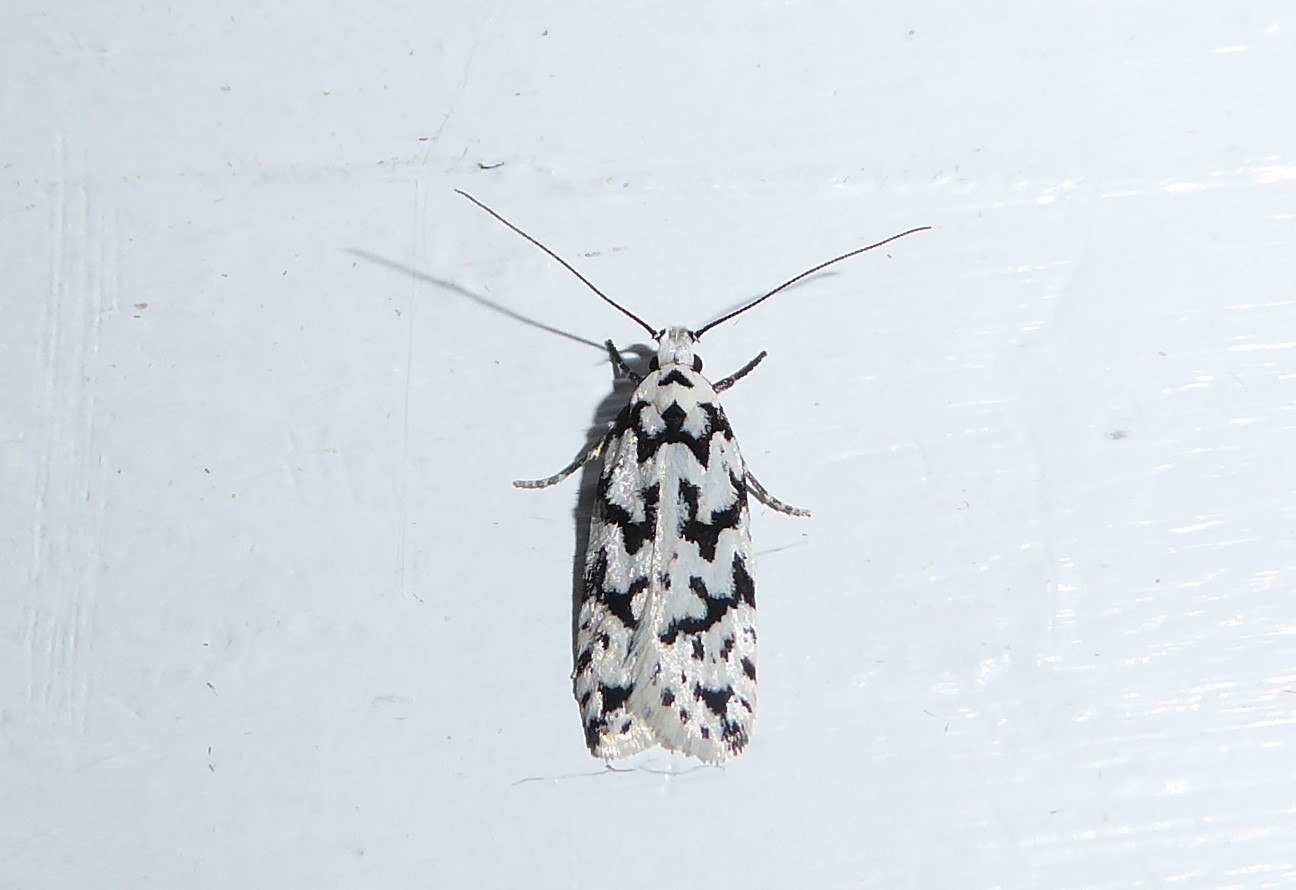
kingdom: Animalia
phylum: Arthropoda
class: Insecta
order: Lepidoptera
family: Oecophoridae
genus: Izatha
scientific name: Izatha katadiktya
